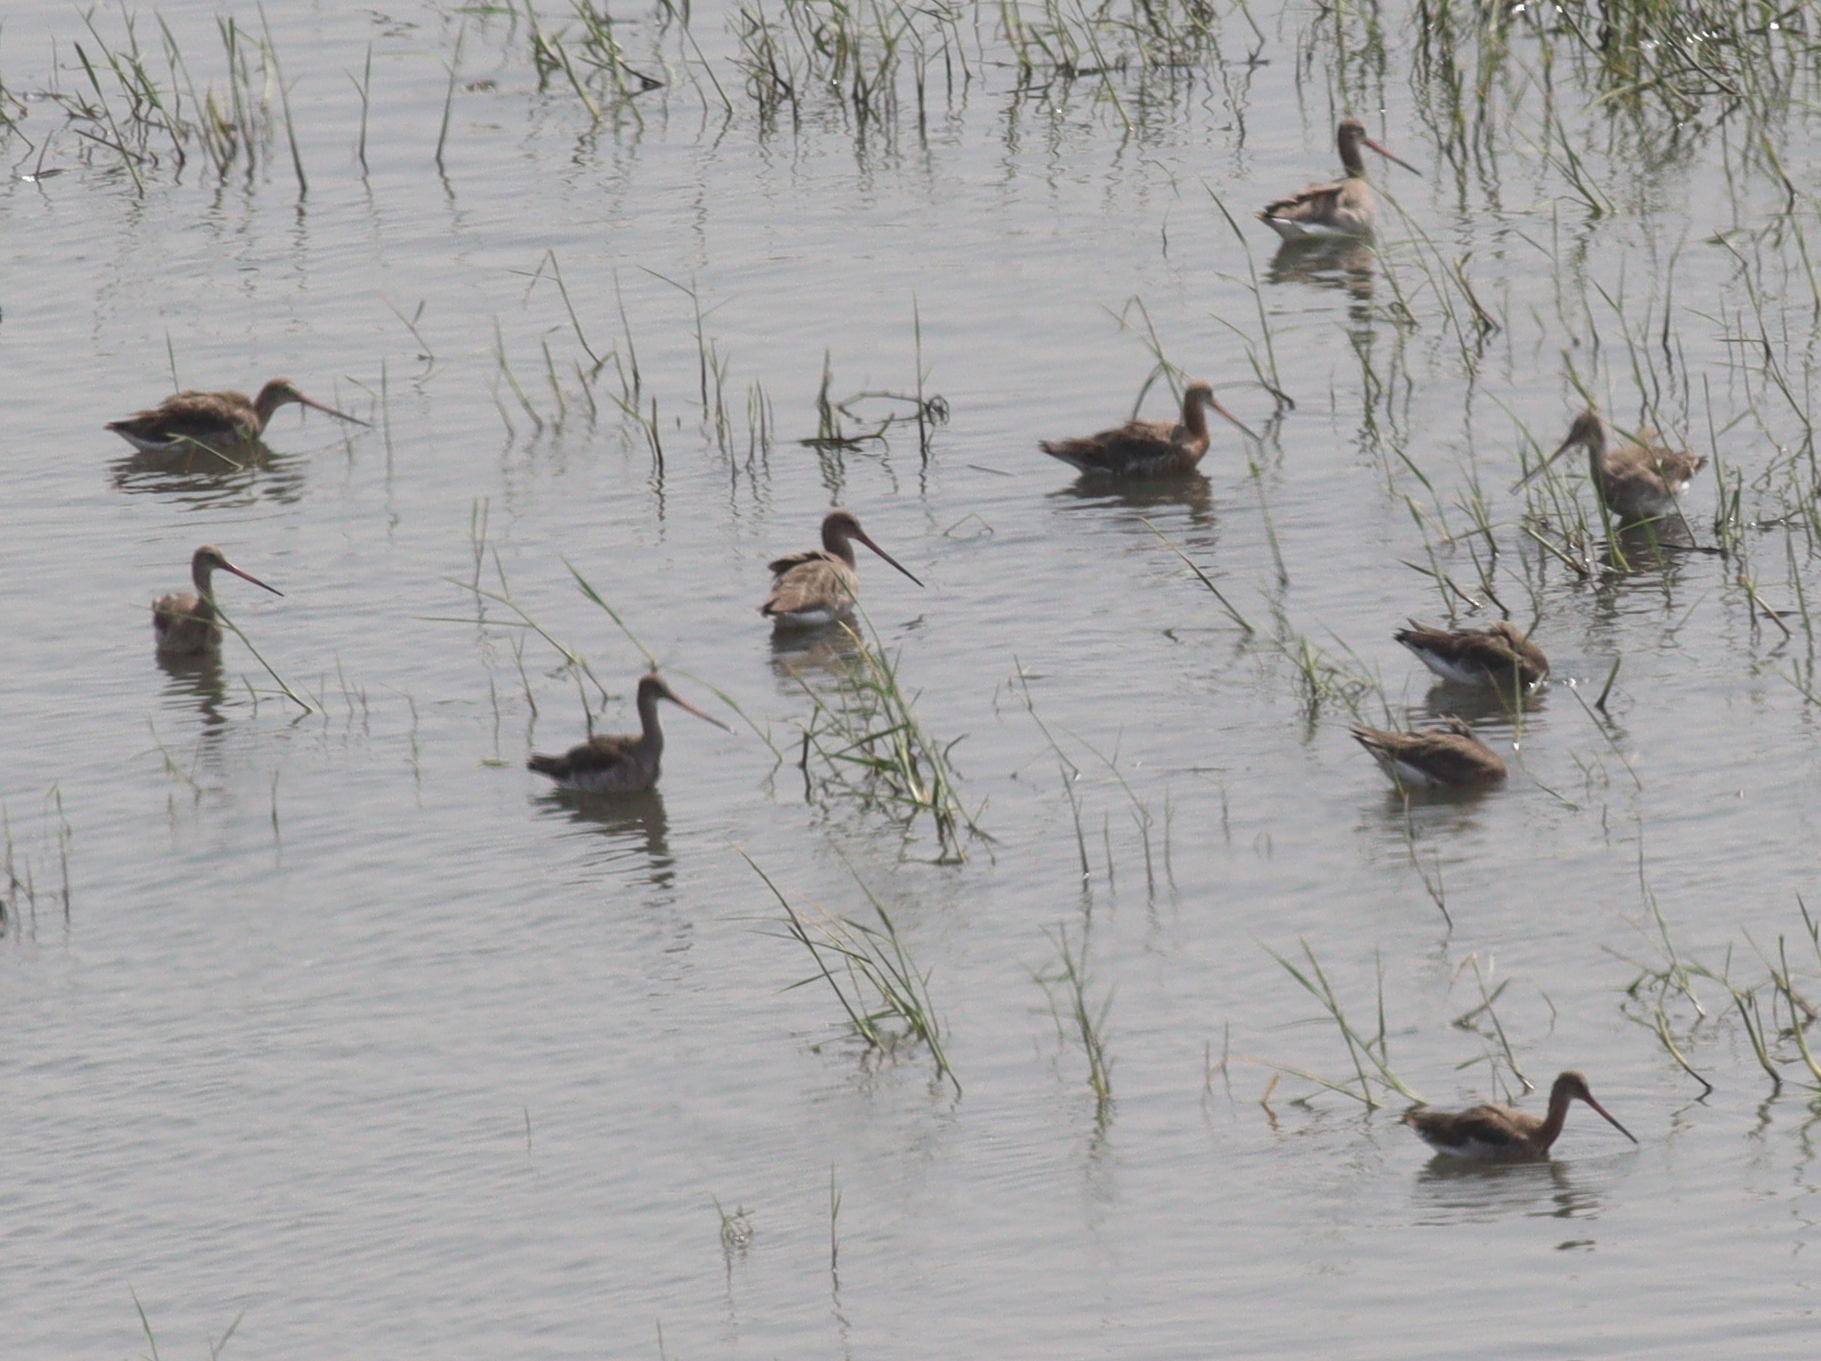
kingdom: Animalia
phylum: Chordata
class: Aves
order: Charadriiformes
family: Scolopacidae
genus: Limosa
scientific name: Limosa limosa
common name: Black-tailed godwit
